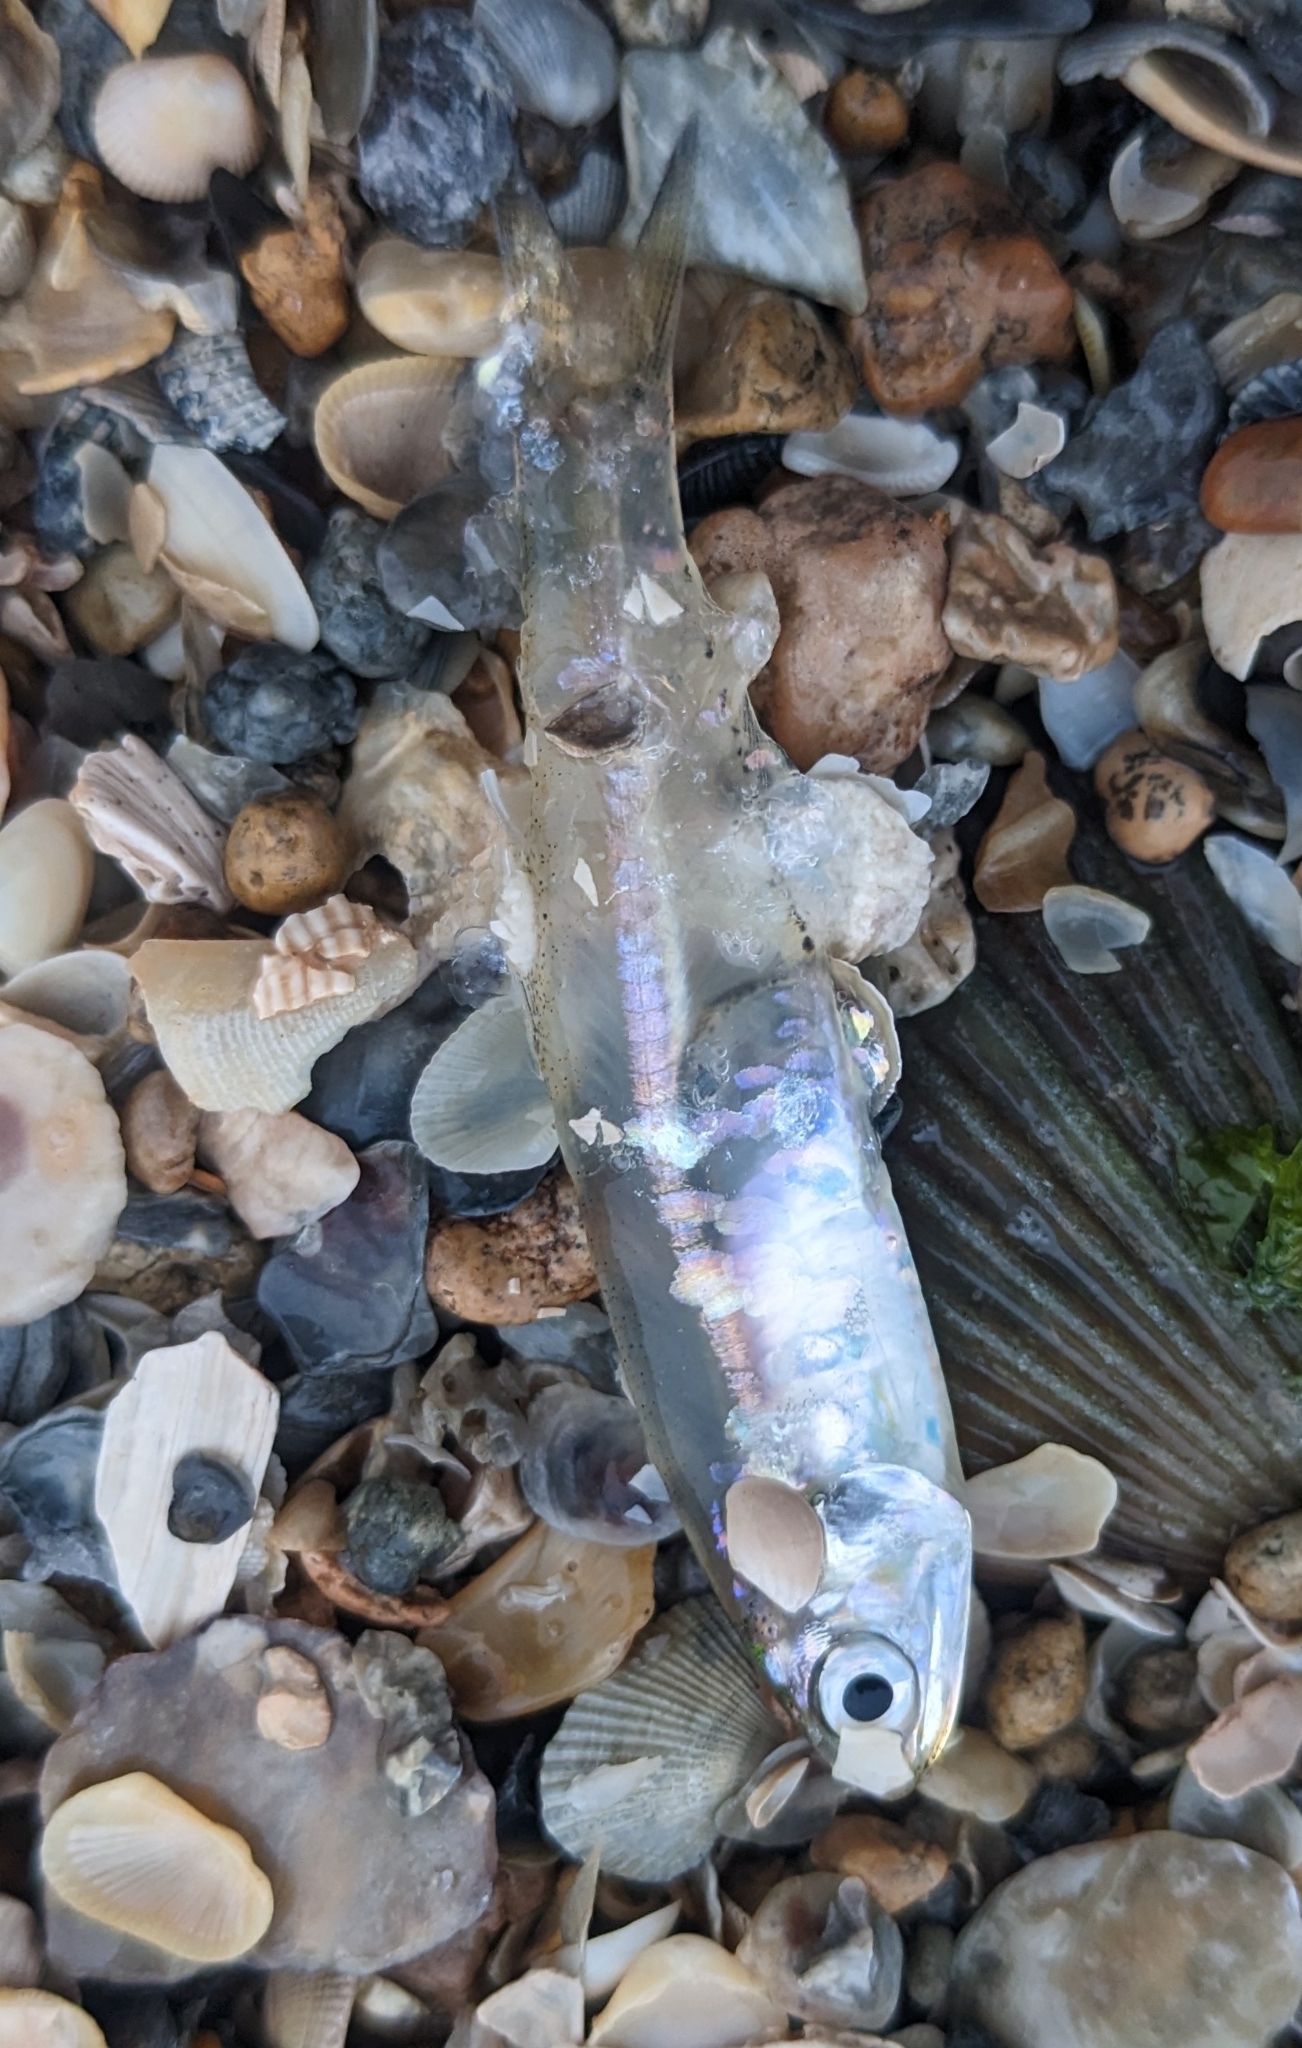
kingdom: Animalia
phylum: Chordata
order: Clupeiformes
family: Engraulidae
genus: Anchoa
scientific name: Anchoa mitchilli
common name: Bay anchovy
